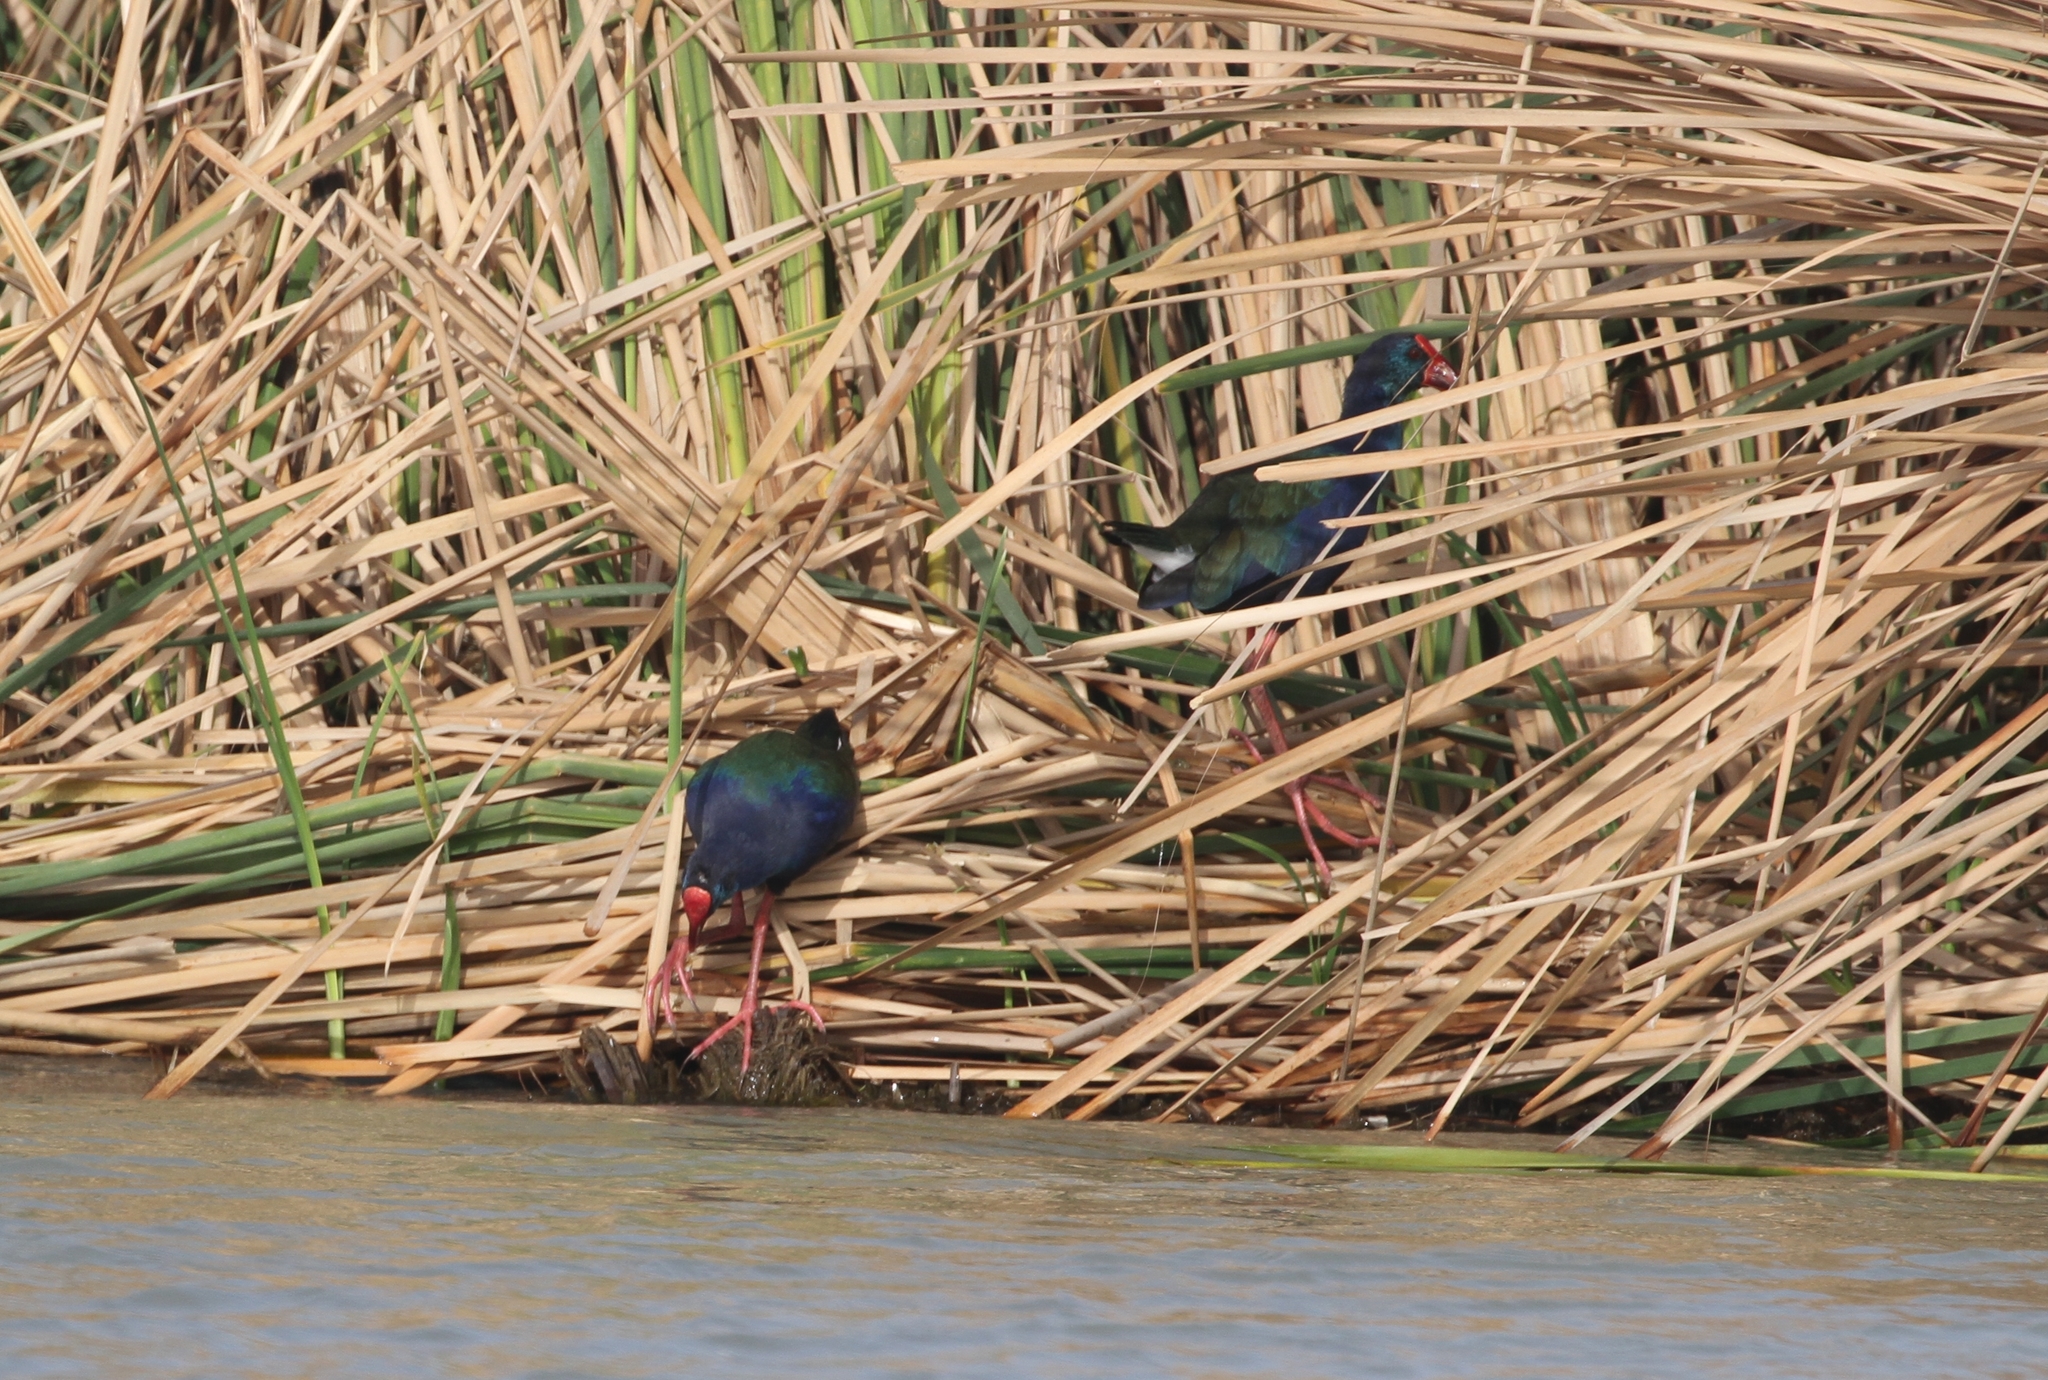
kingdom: Animalia
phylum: Chordata
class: Aves
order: Gruiformes
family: Rallidae
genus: Porphyrio
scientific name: Porphyrio porphyrio
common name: Purple swamphen
